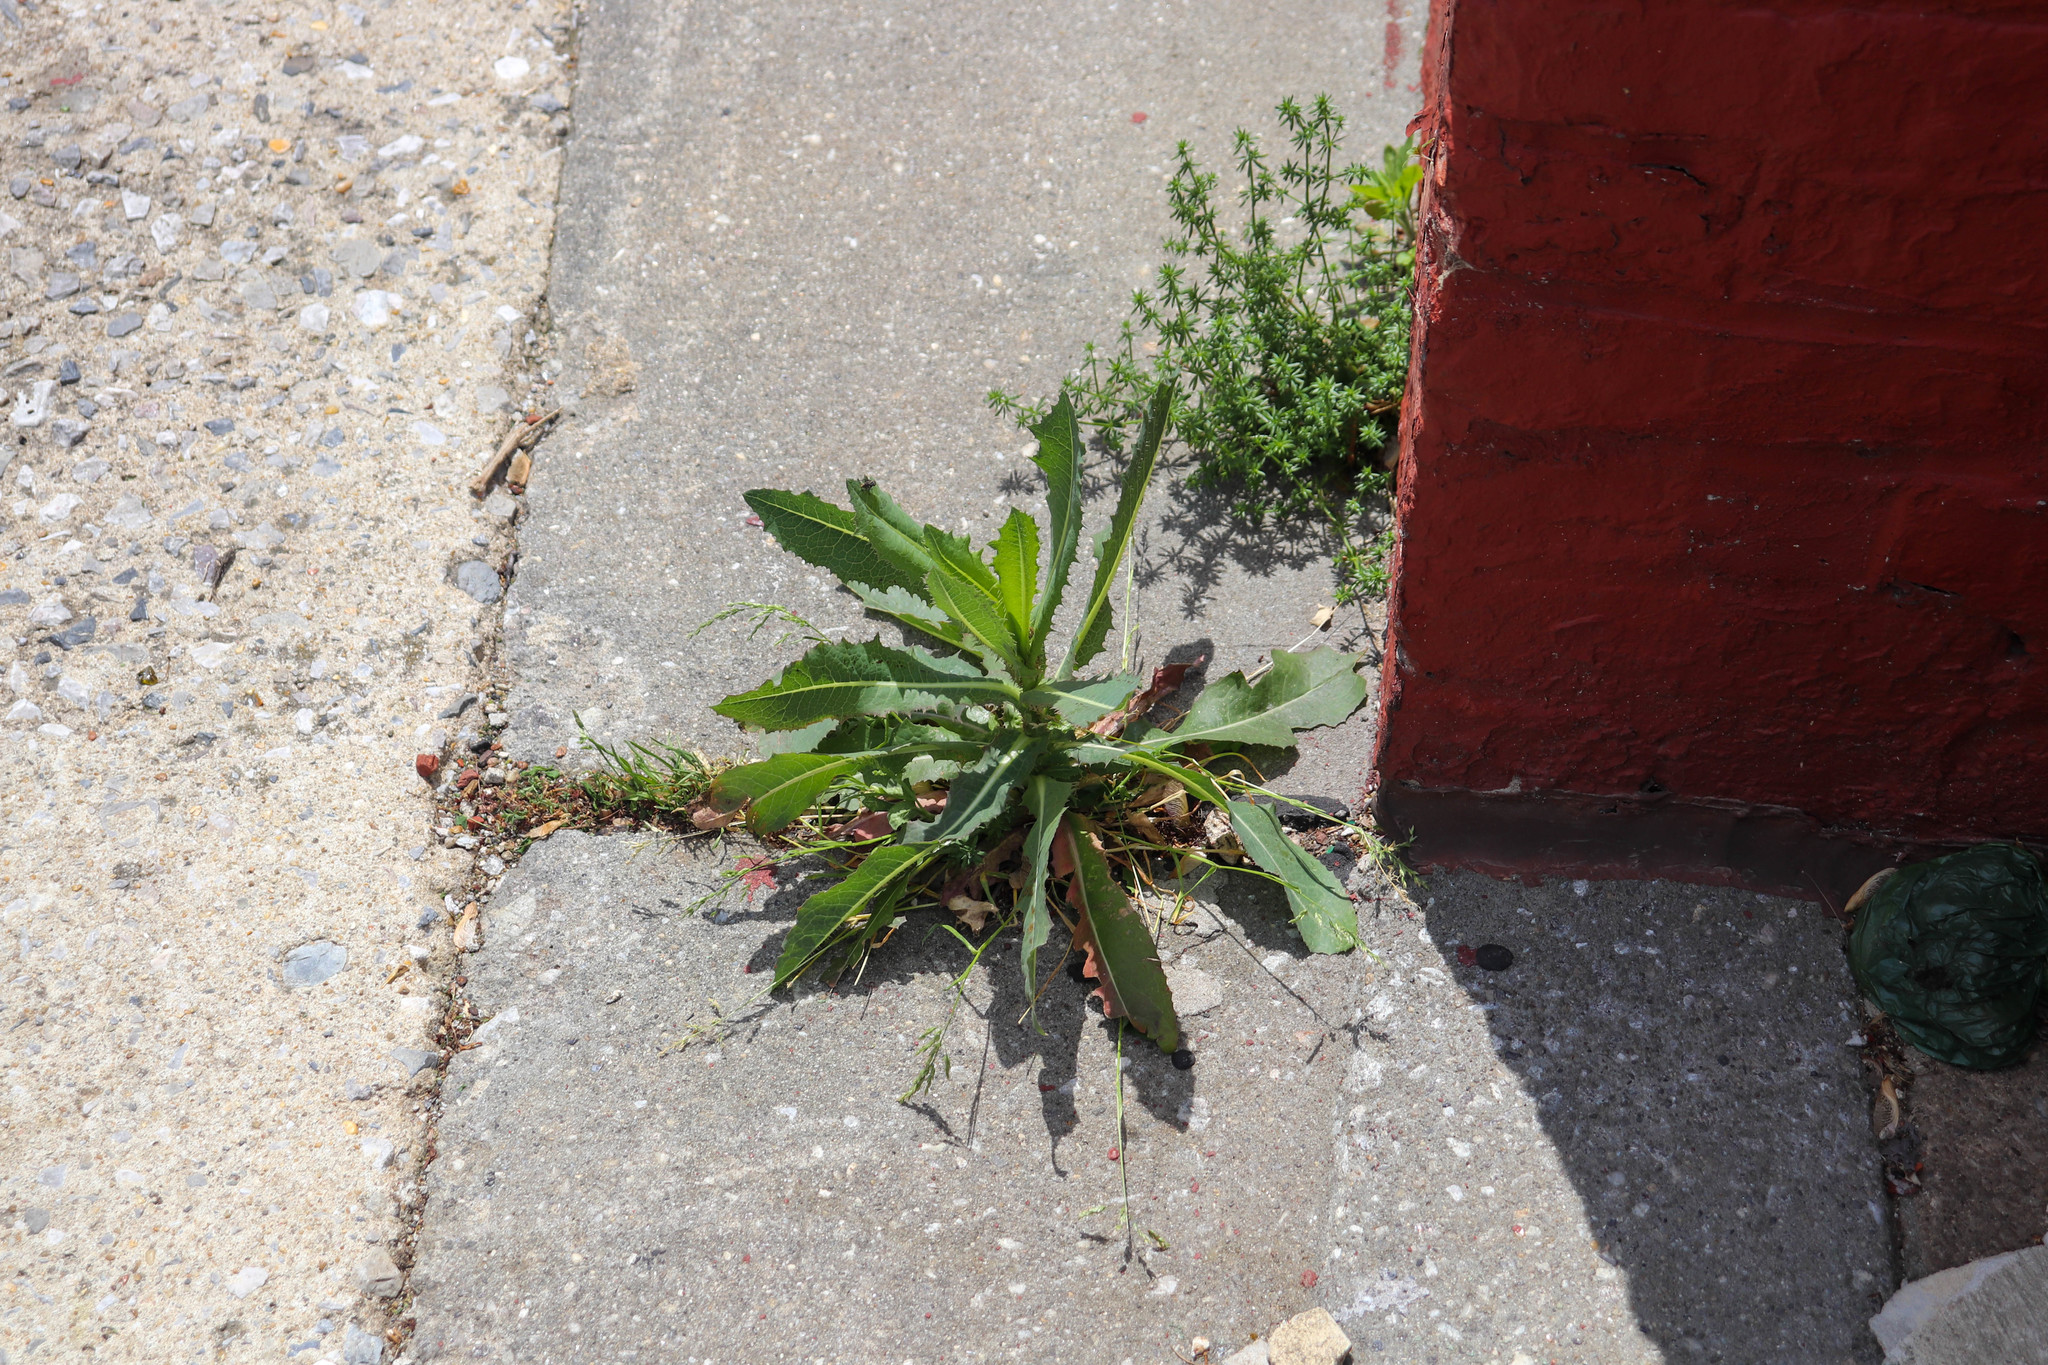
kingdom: Plantae
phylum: Tracheophyta
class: Magnoliopsida
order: Asterales
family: Asteraceae
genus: Lactuca
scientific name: Lactuca serriola
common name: Prickly lettuce
